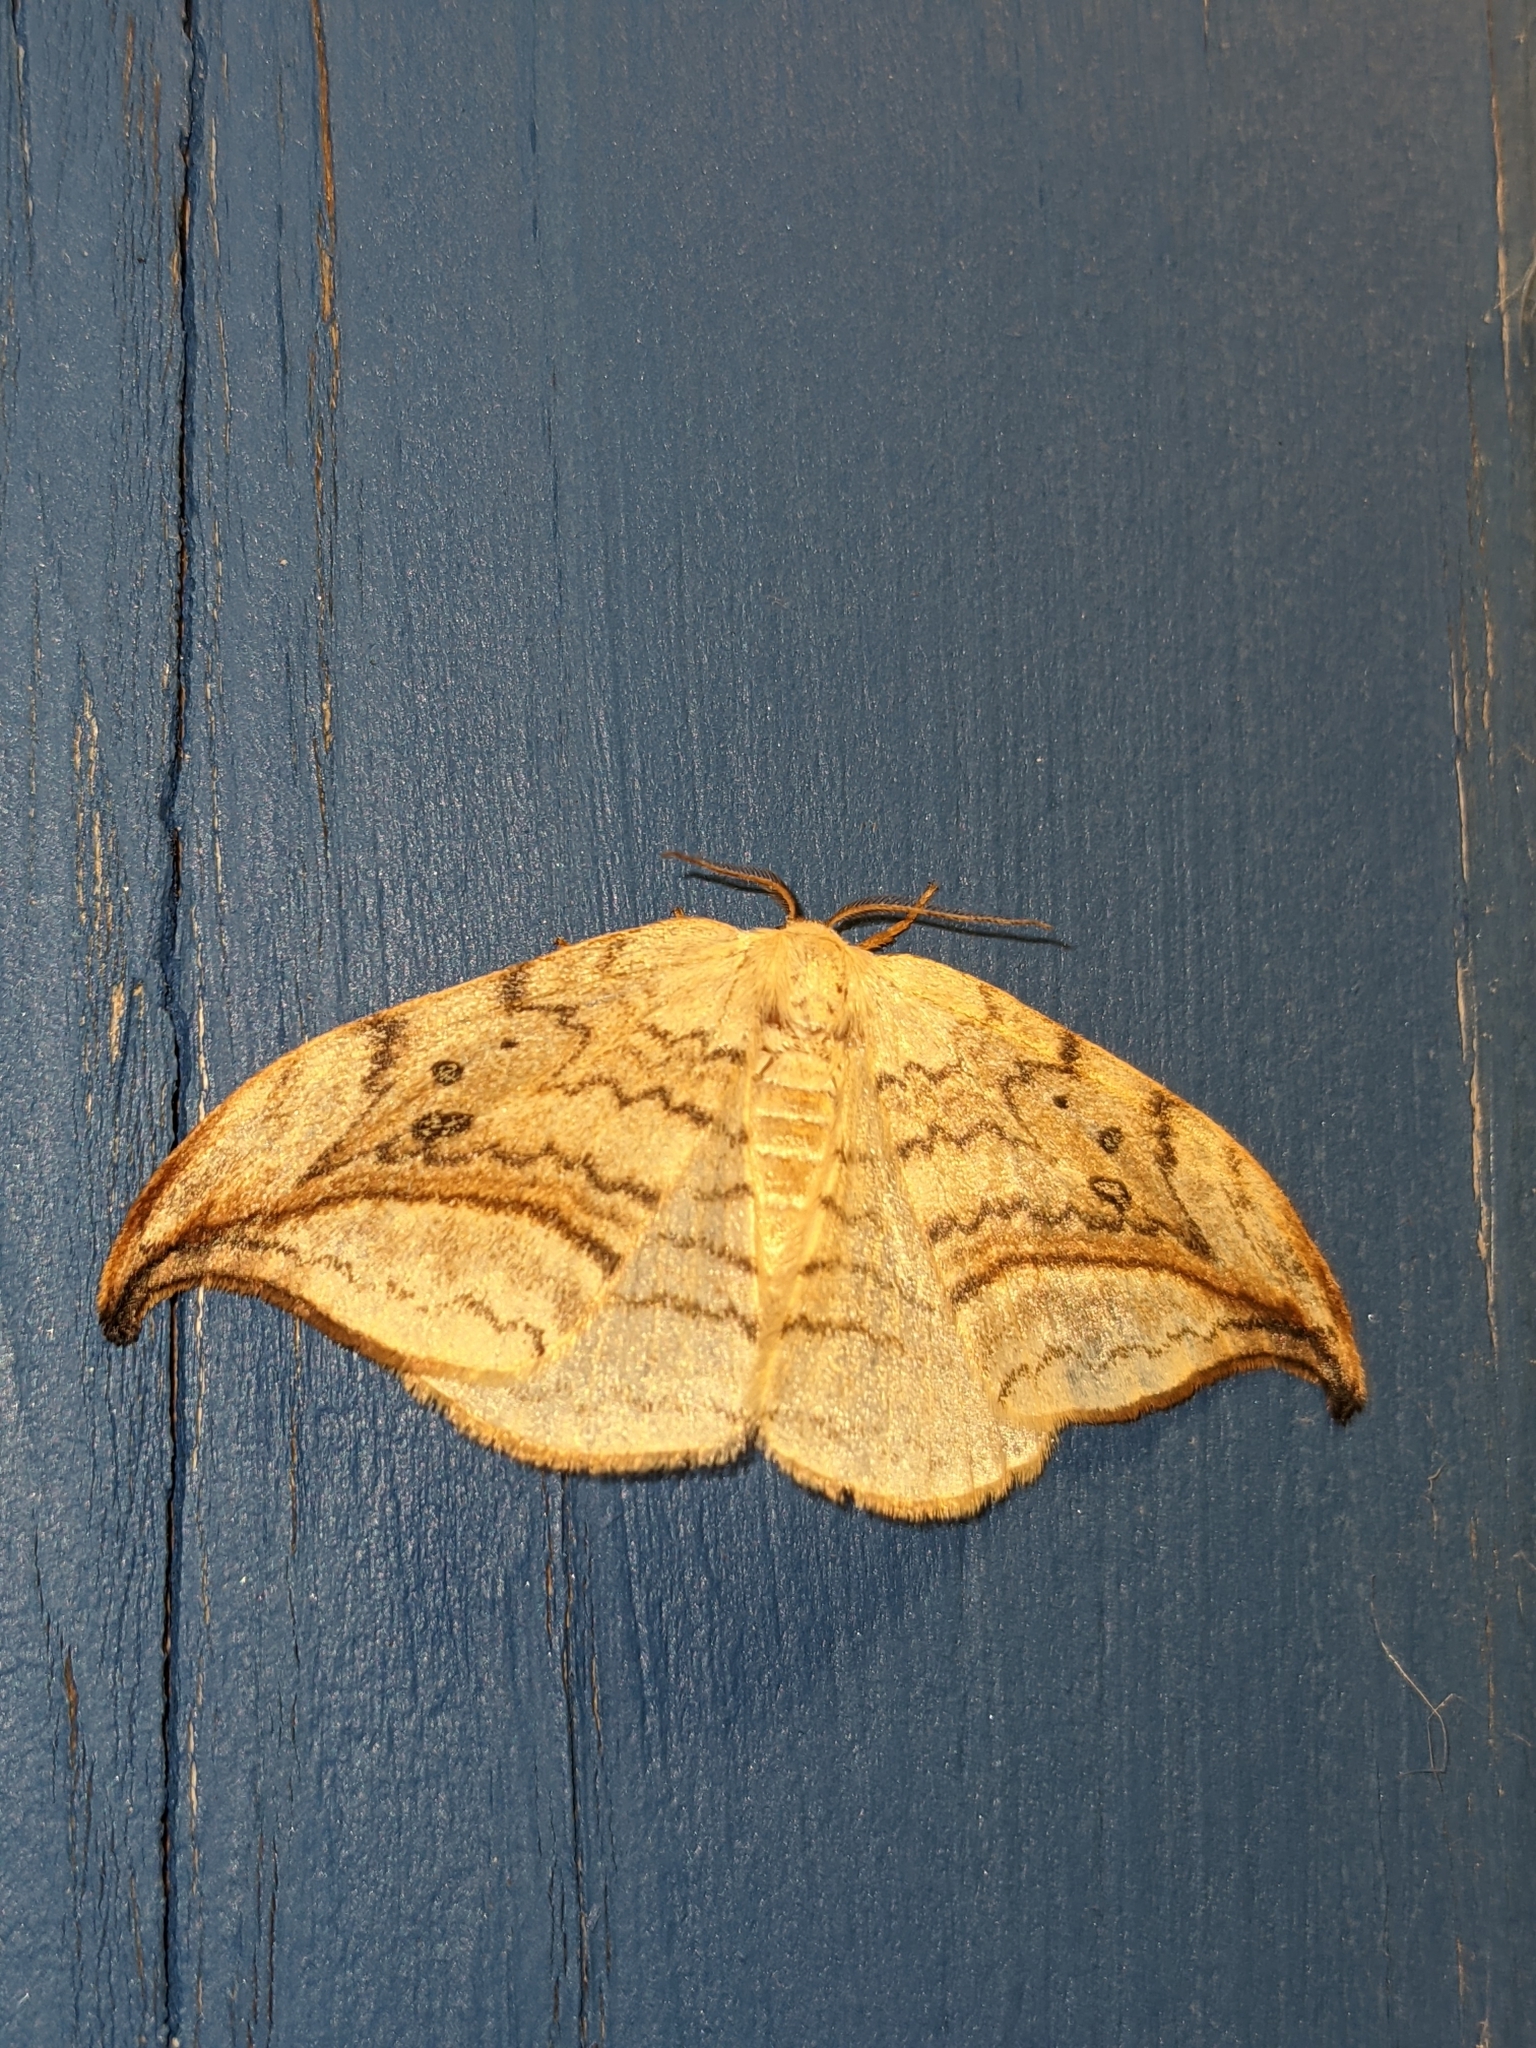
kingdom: Animalia
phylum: Arthropoda
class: Insecta
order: Lepidoptera
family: Drepanidae
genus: Drepana
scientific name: Drepana arcuata
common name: Arched hooktip moth
